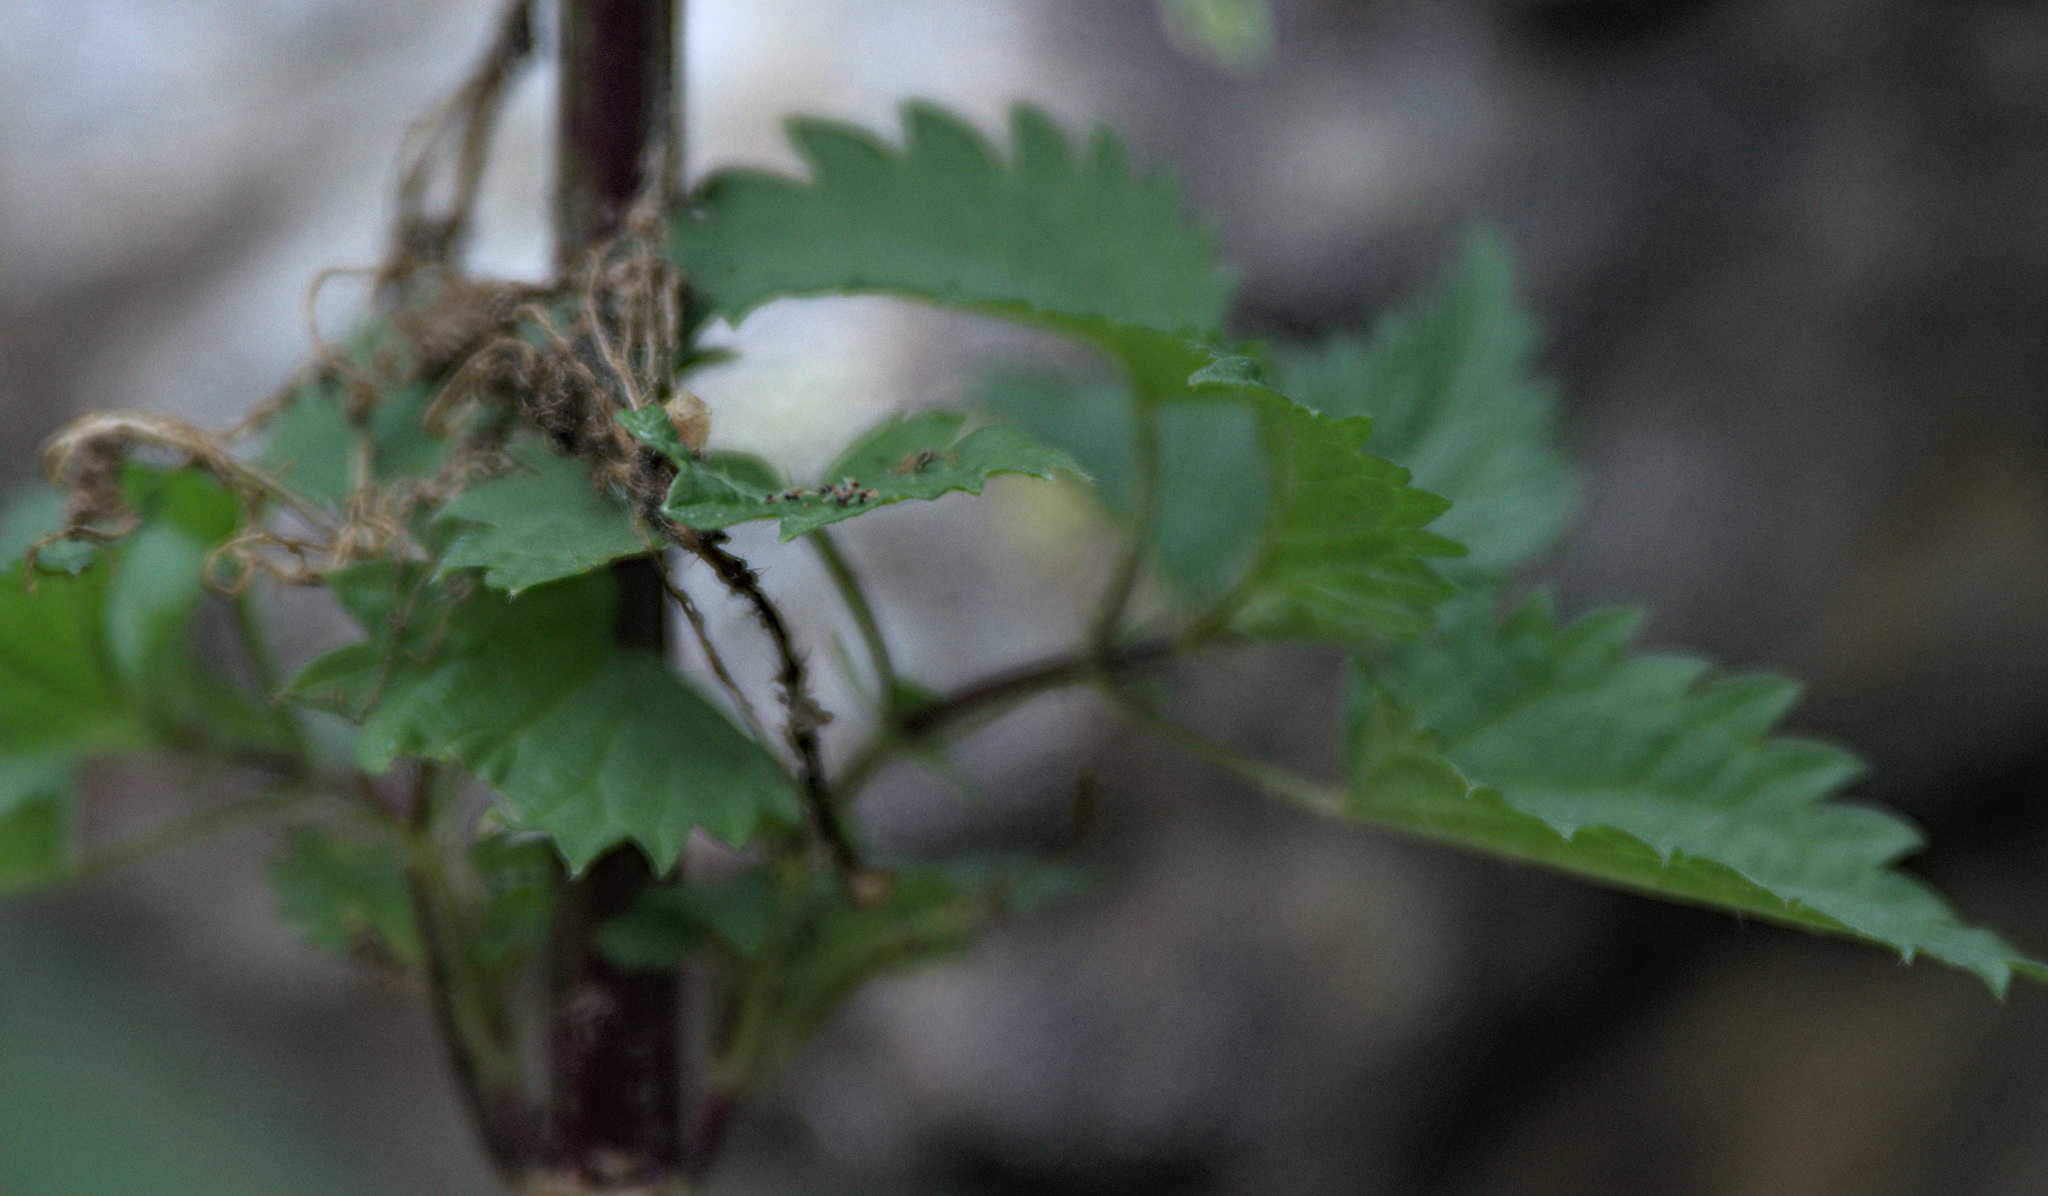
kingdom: Plantae
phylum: Tracheophyta
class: Magnoliopsida
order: Rosales
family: Urticaceae
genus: Urtica
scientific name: Urtica dioica
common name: Common nettle
